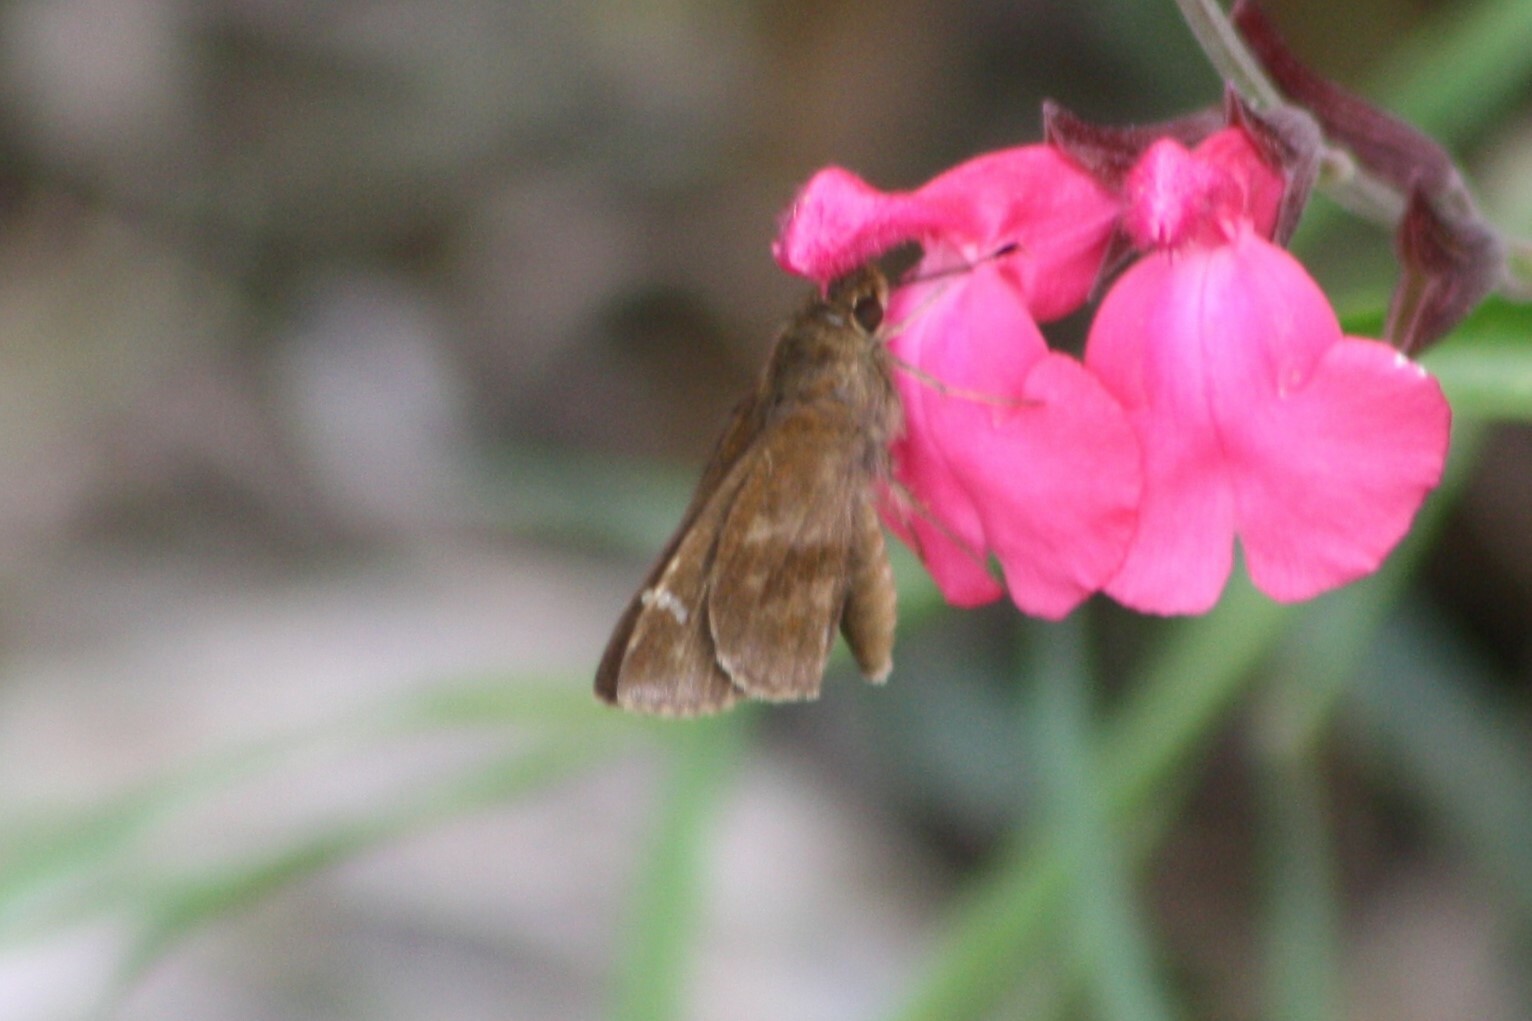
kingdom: Animalia
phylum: Arthropoda
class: Insecta
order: Lepidoptera
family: Hesperiidae
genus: Lerema
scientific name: Lerema accius
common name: Clouded skipper
